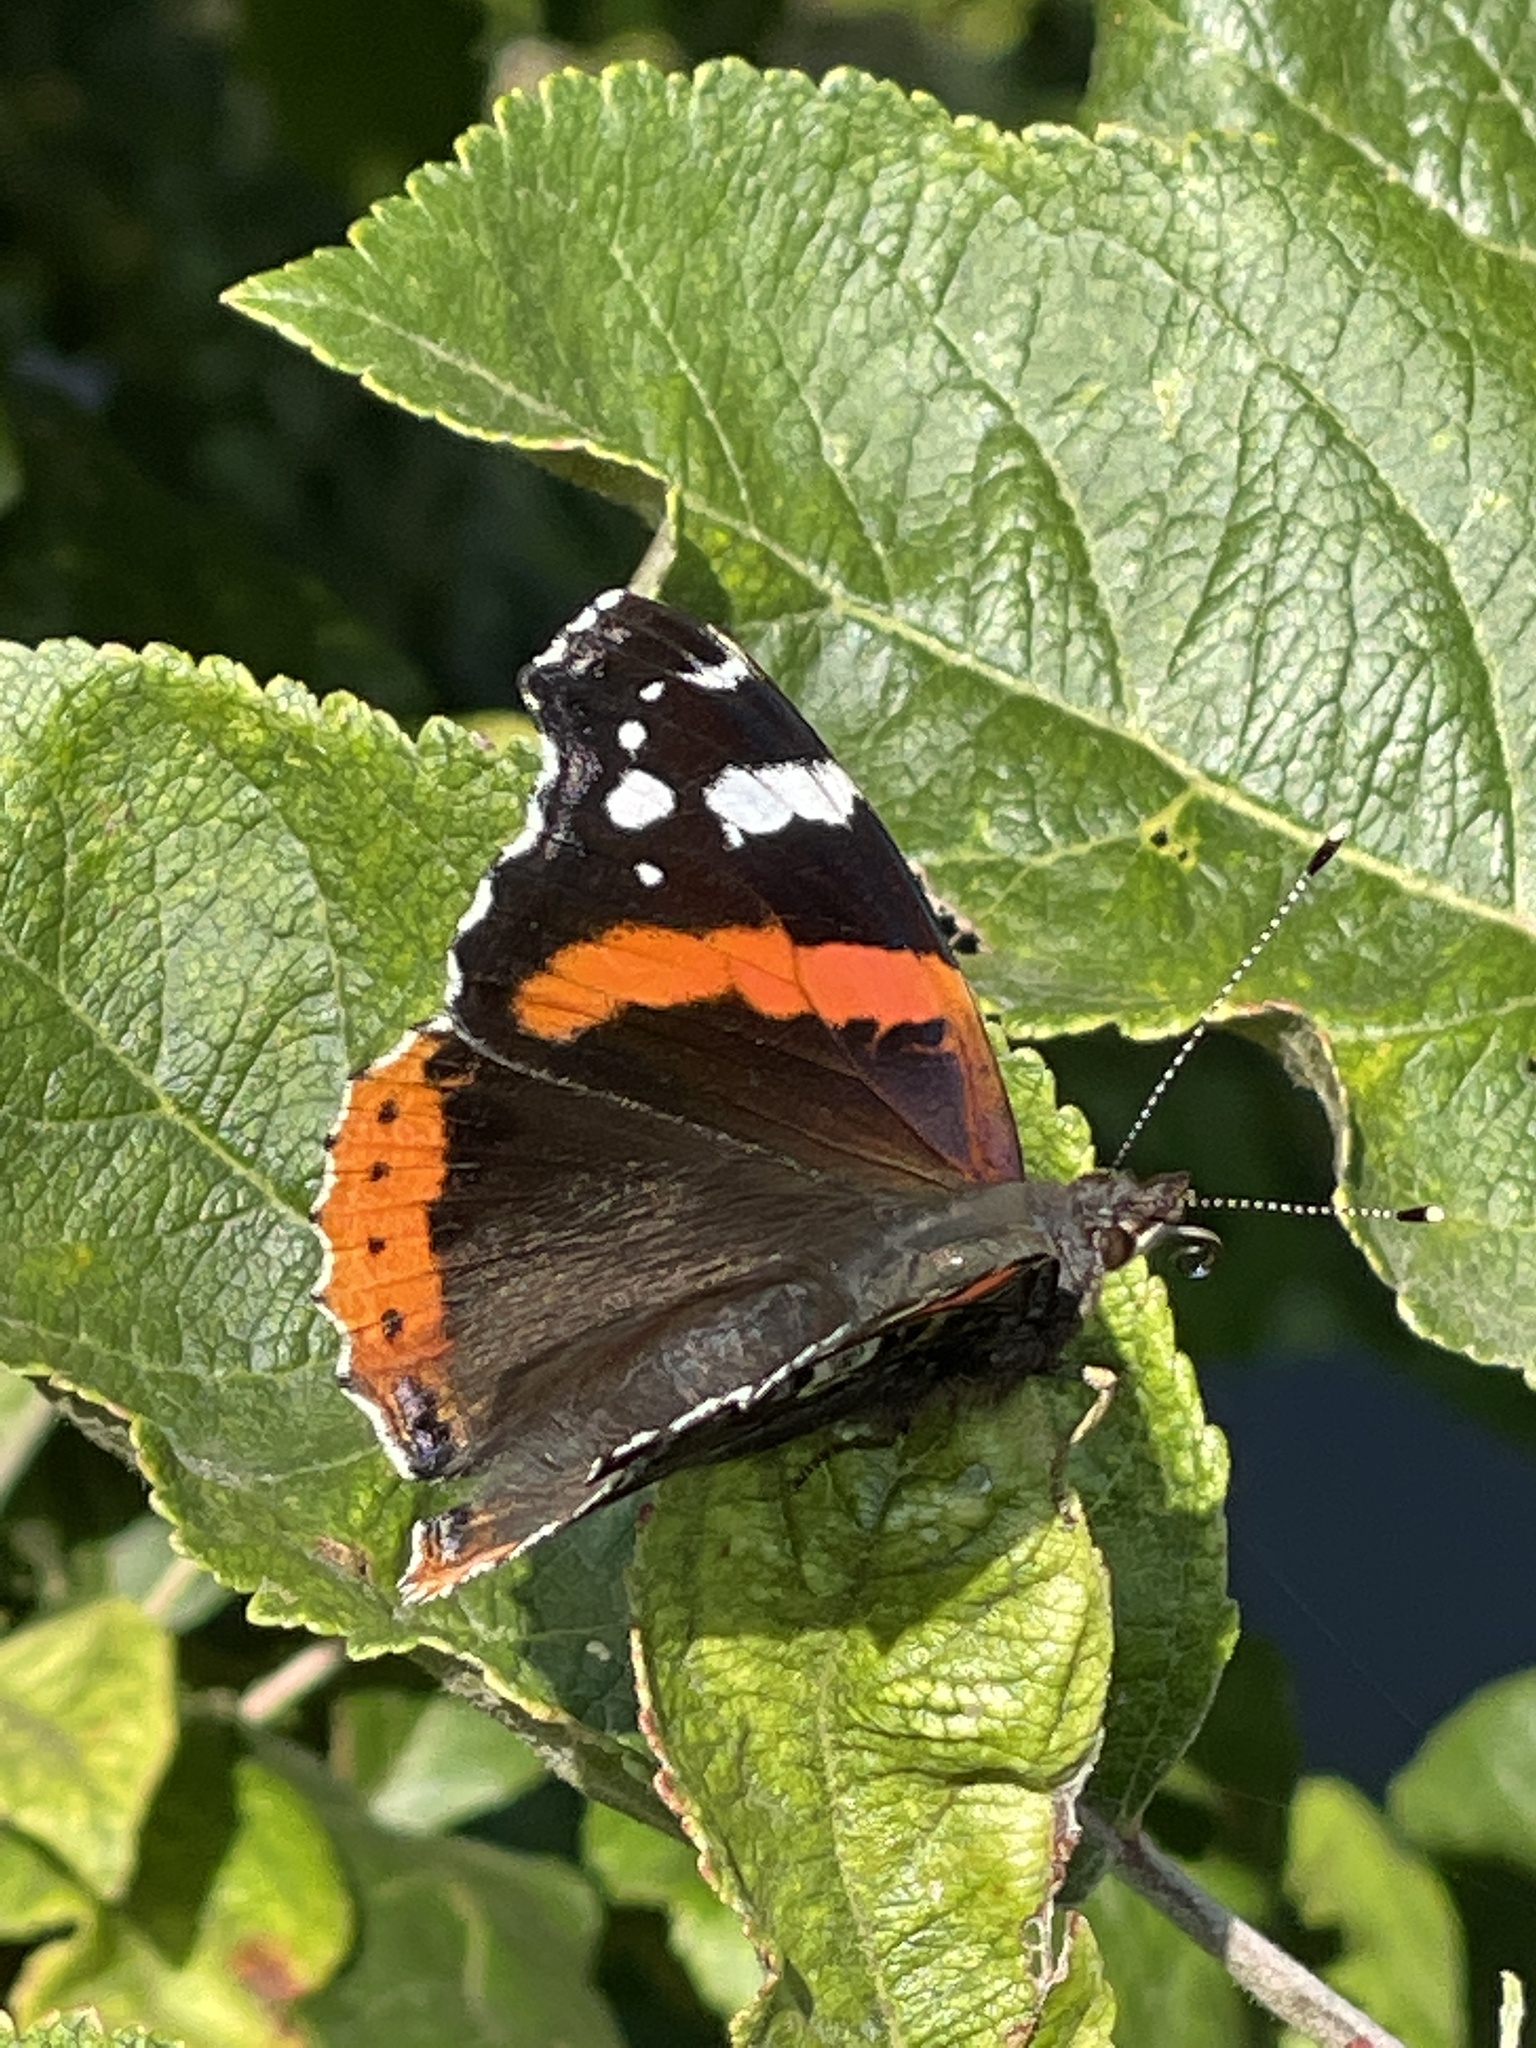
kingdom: Animalia
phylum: Arthropoda
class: Insecta
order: Lepidoptera
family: Nymphalidae
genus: Vanessa
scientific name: Vanessa atalanta
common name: Red admiral
